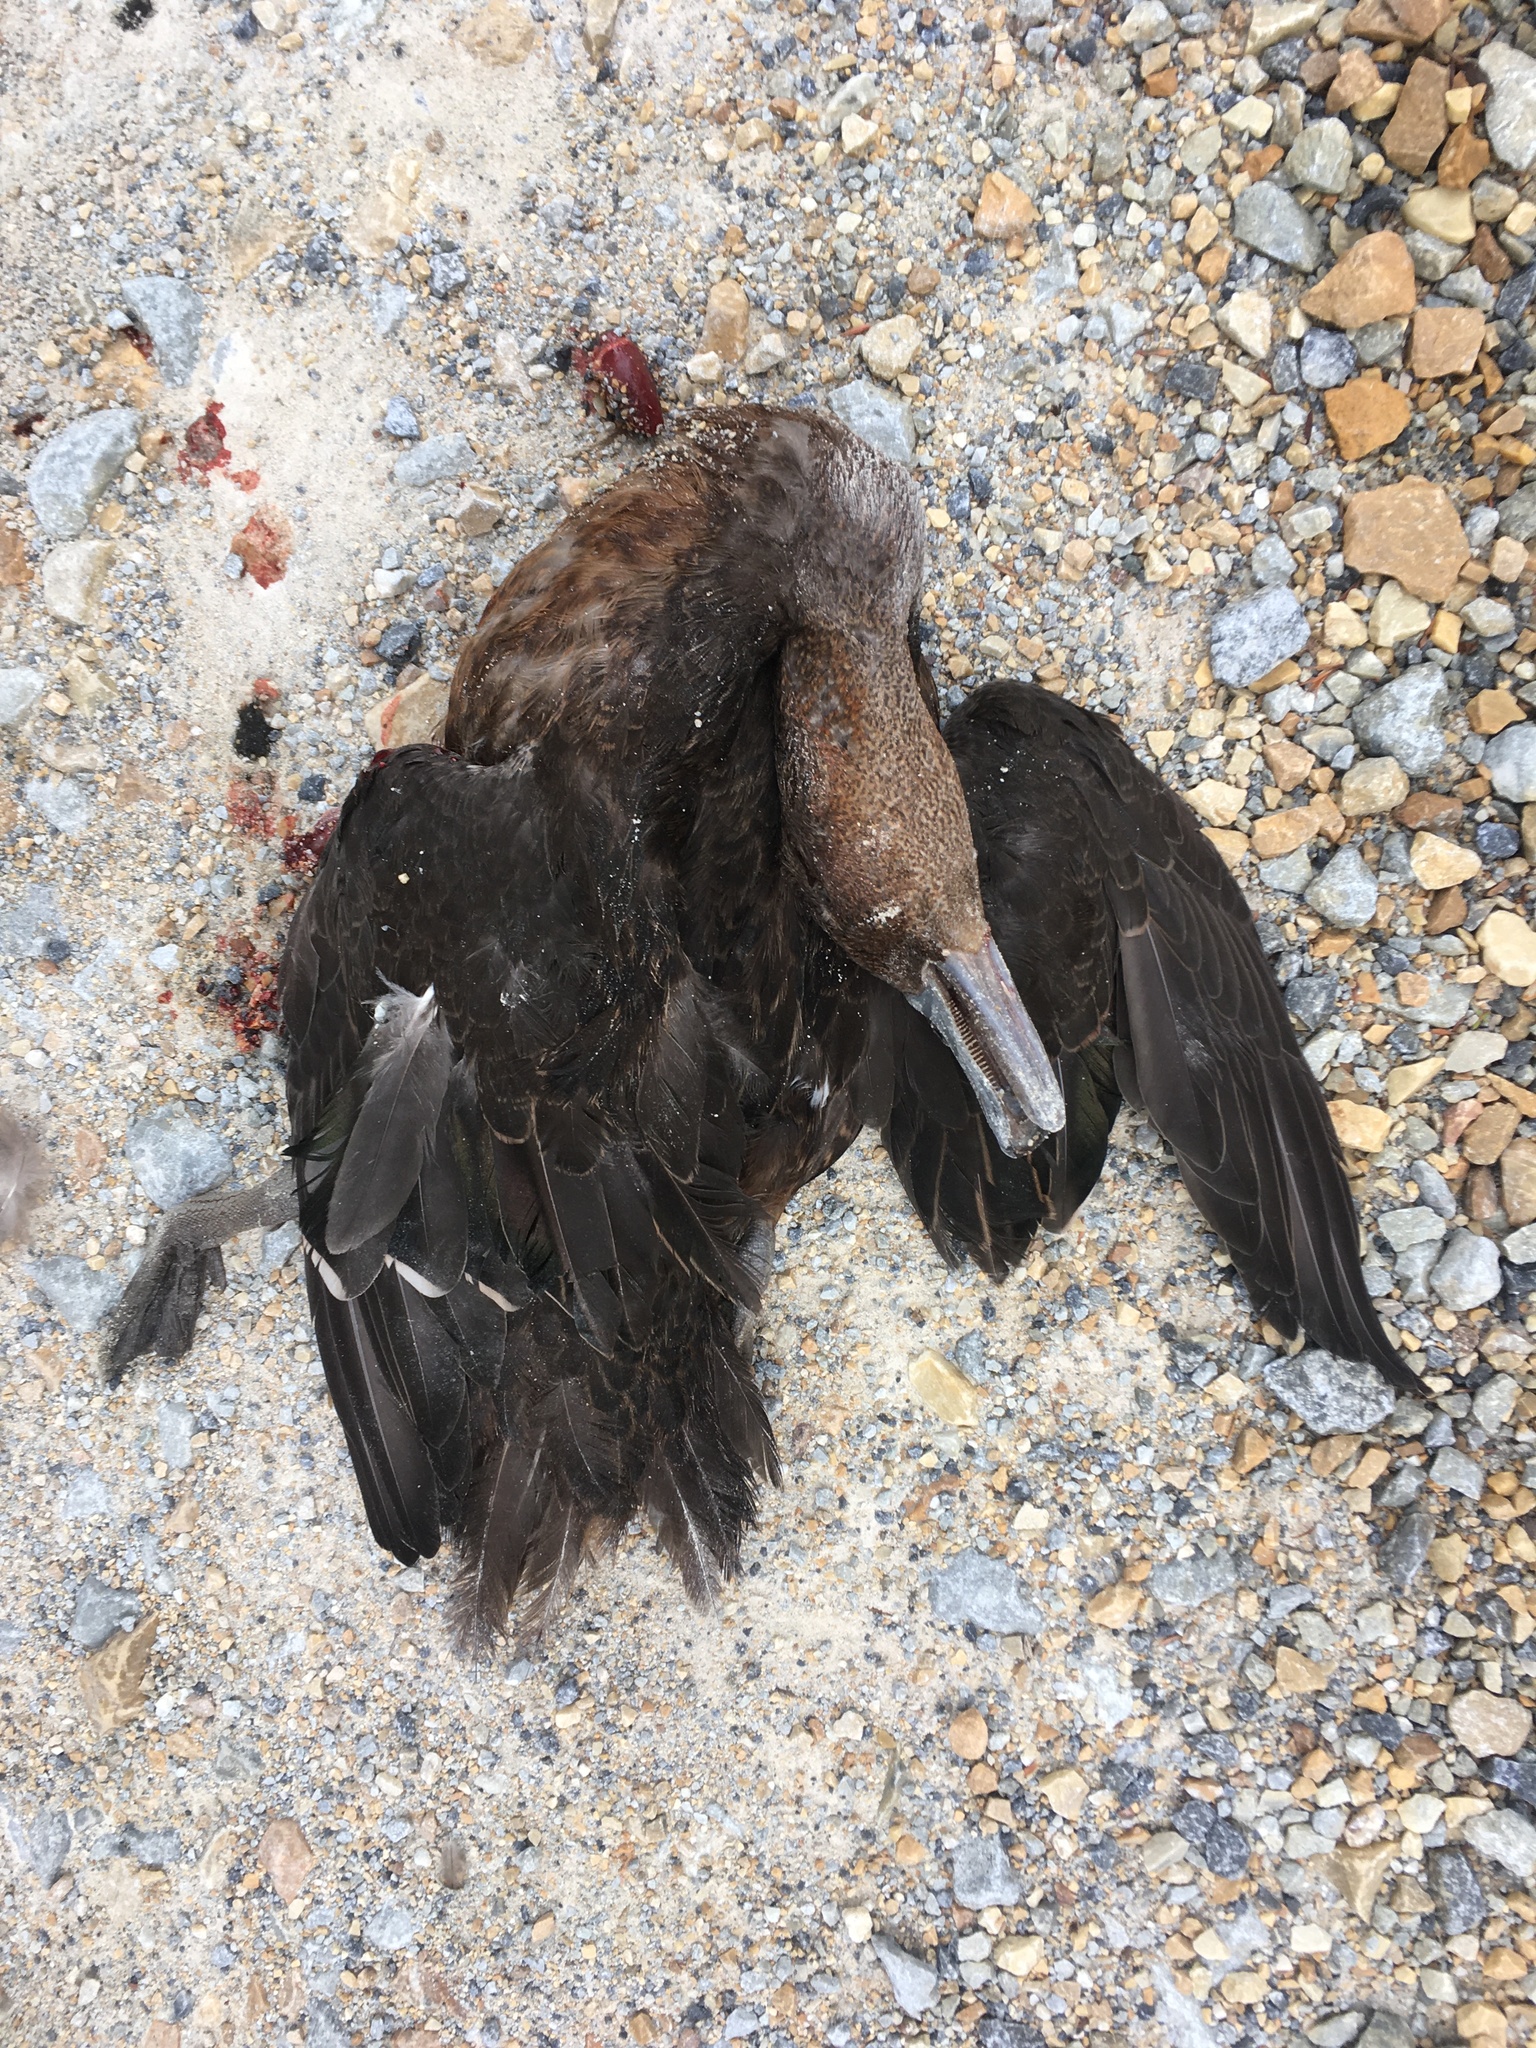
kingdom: Animalia
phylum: Chordata
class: Aves
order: Anseriformes
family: Anatidae
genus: Anas
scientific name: Anas chlorotis
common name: Brown teal
